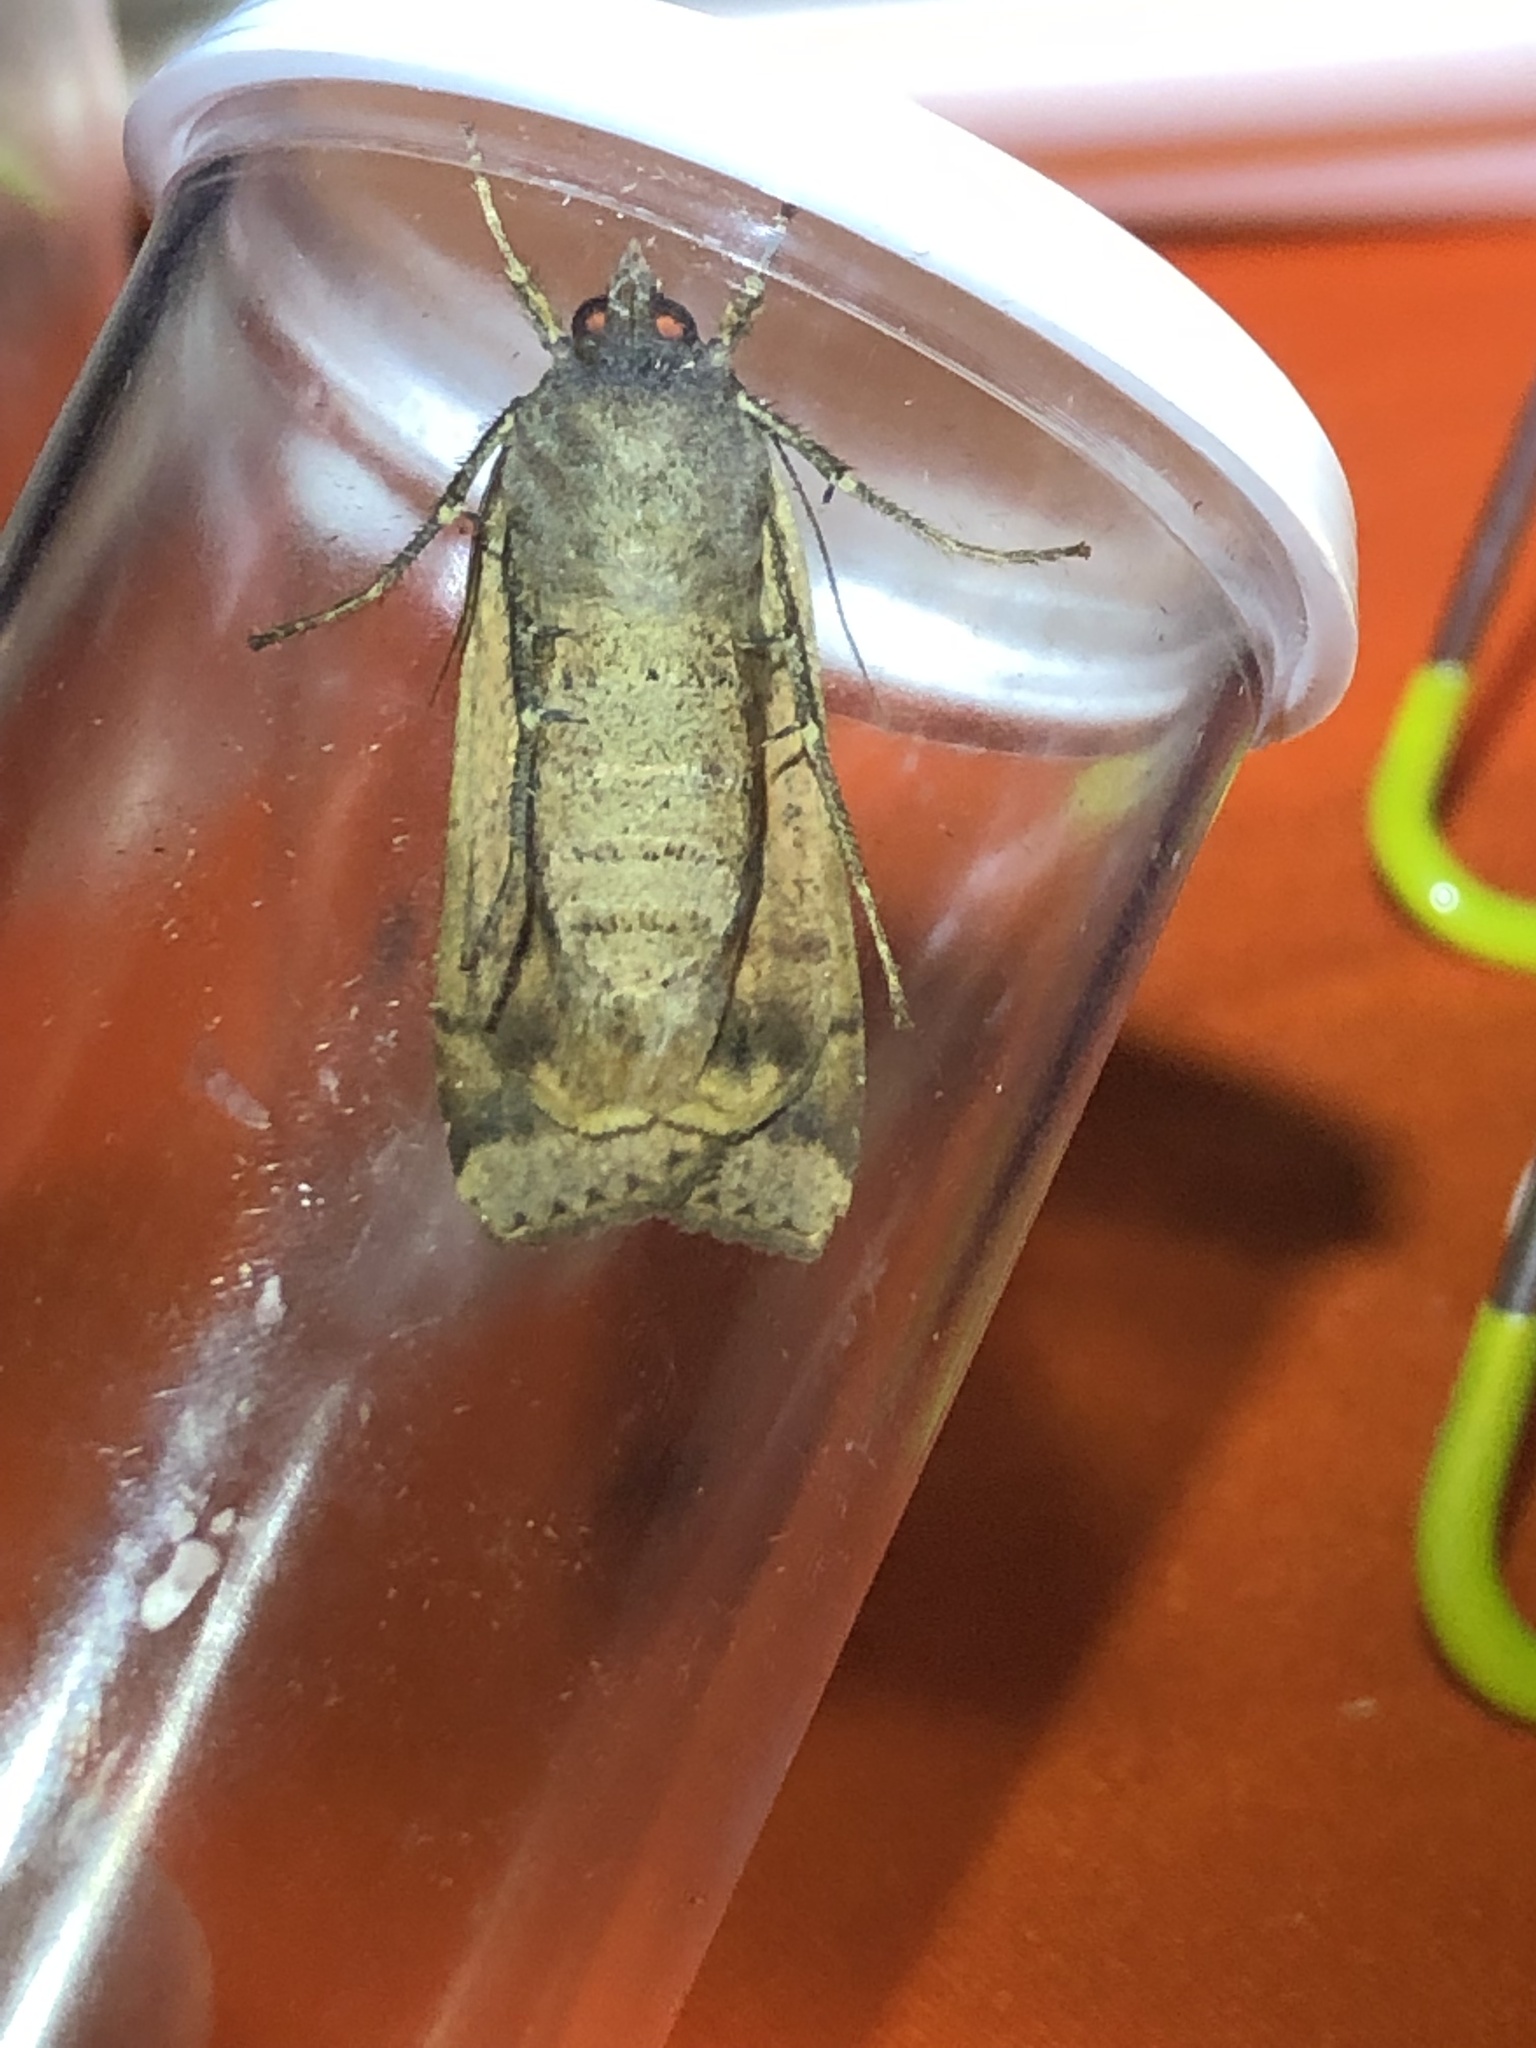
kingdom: Animalia
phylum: Arthropoda
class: Insecta
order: Lepidoptera
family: Noctuidae
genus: Noctua
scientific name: Noctua pronuba
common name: Large yellow underwing
